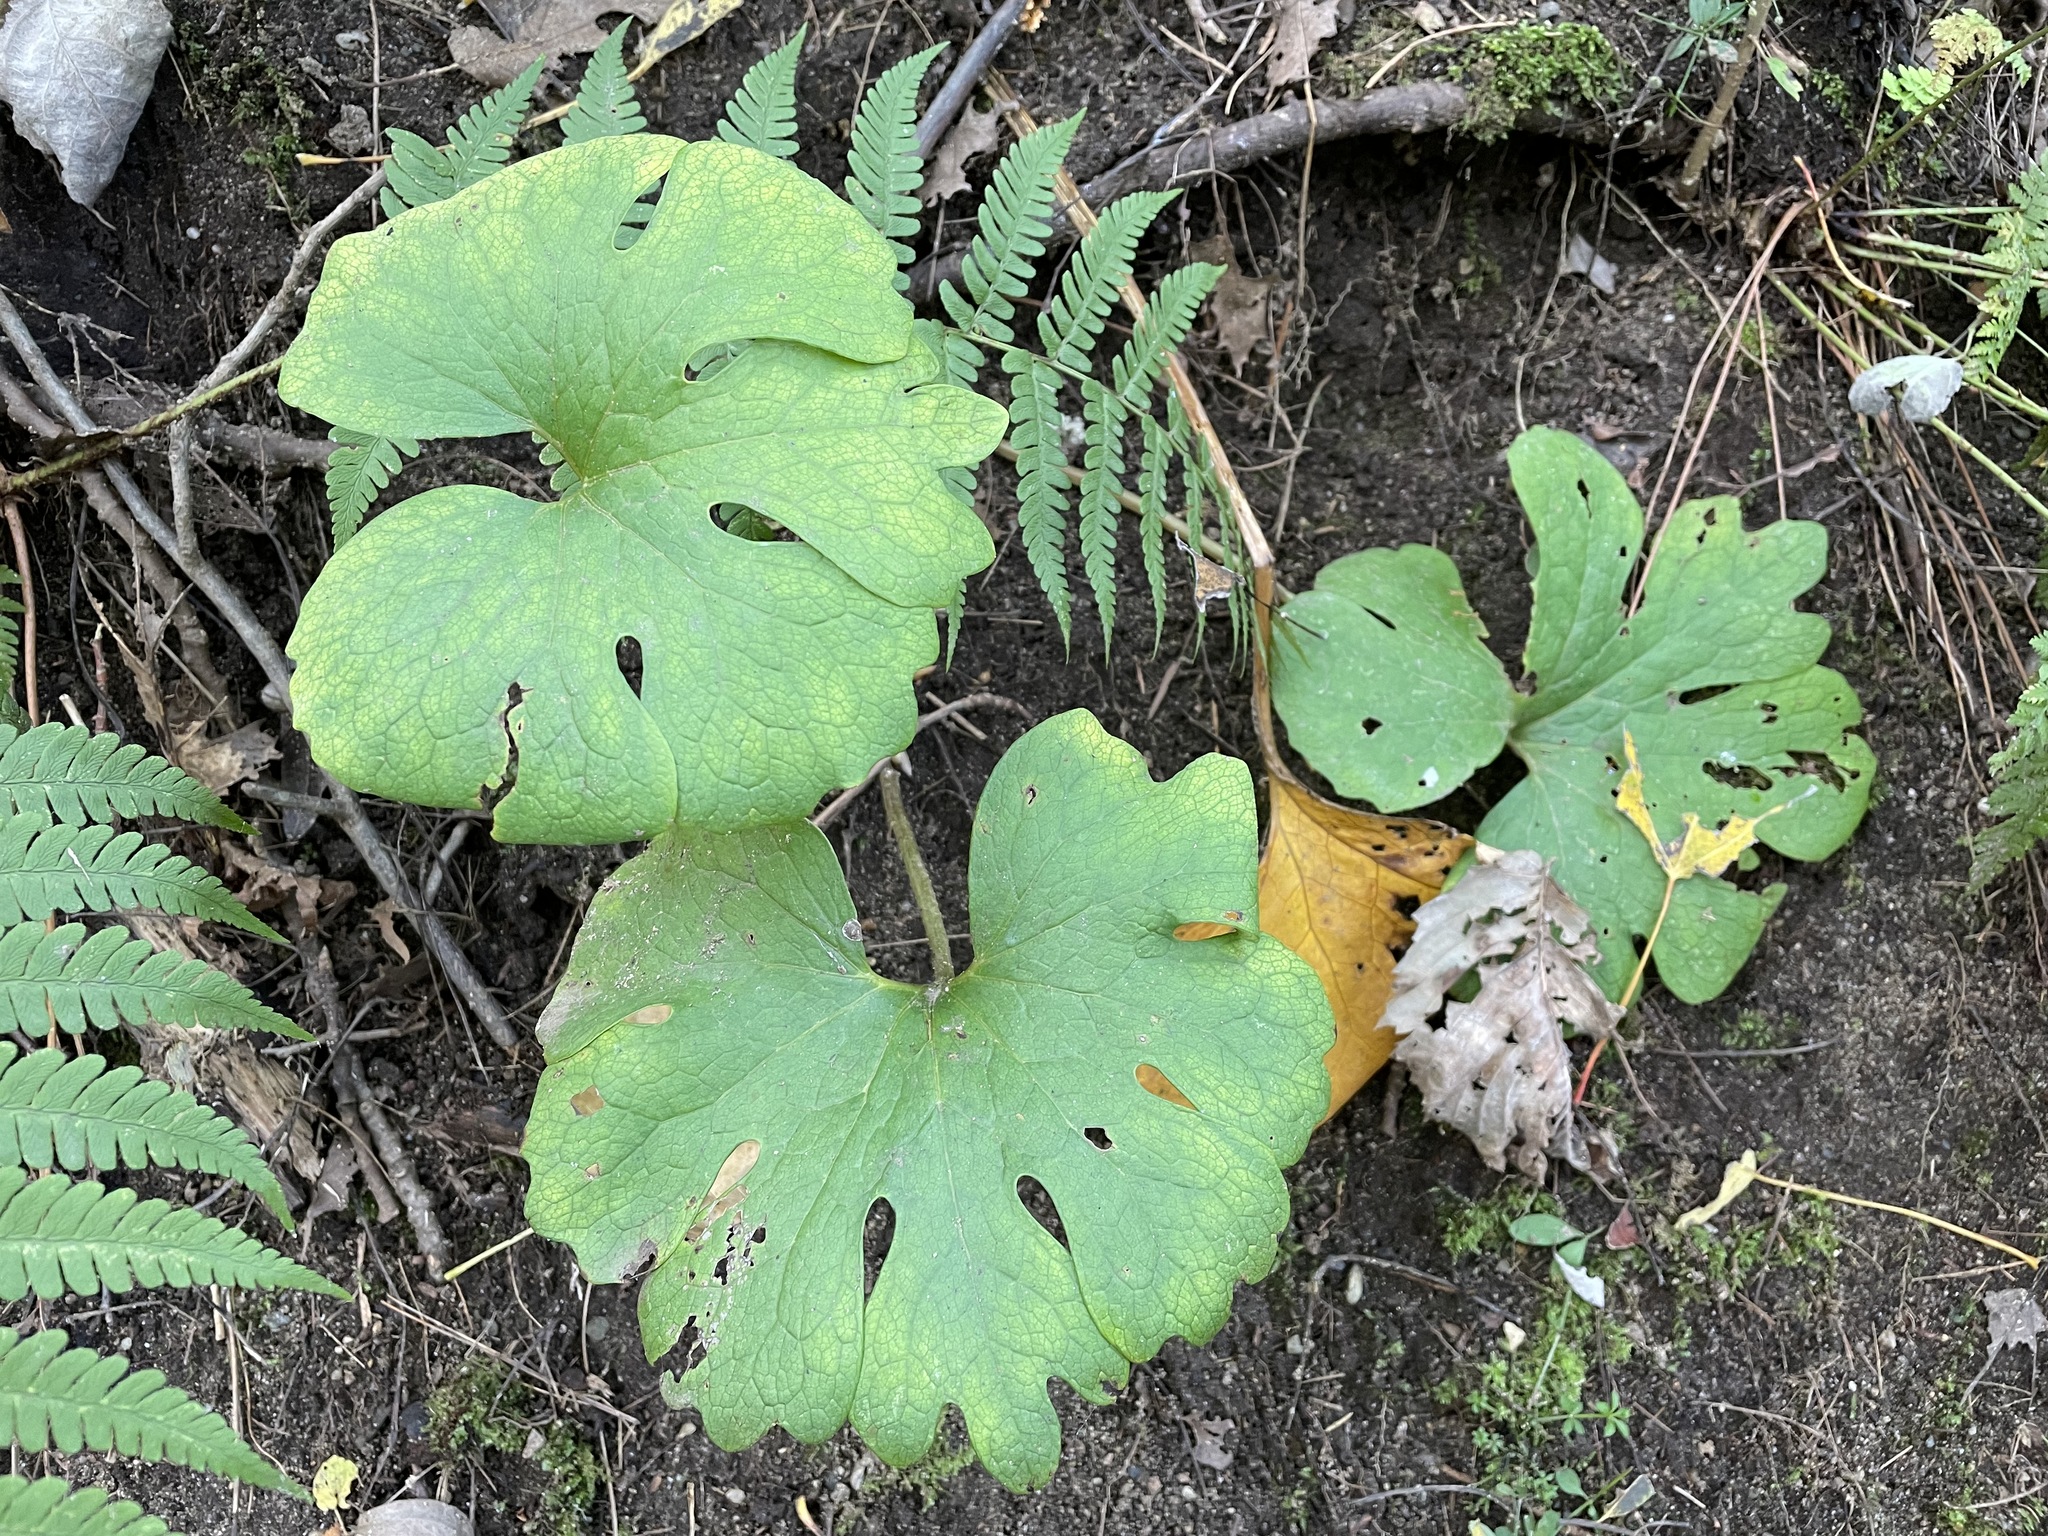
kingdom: Plantae
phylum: Tracheophyta
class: Magnoliopsida
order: Ranunculales
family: Papaveraceae
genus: Sanguinaria
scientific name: Sanguinaria canadensis
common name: Bloodroot
